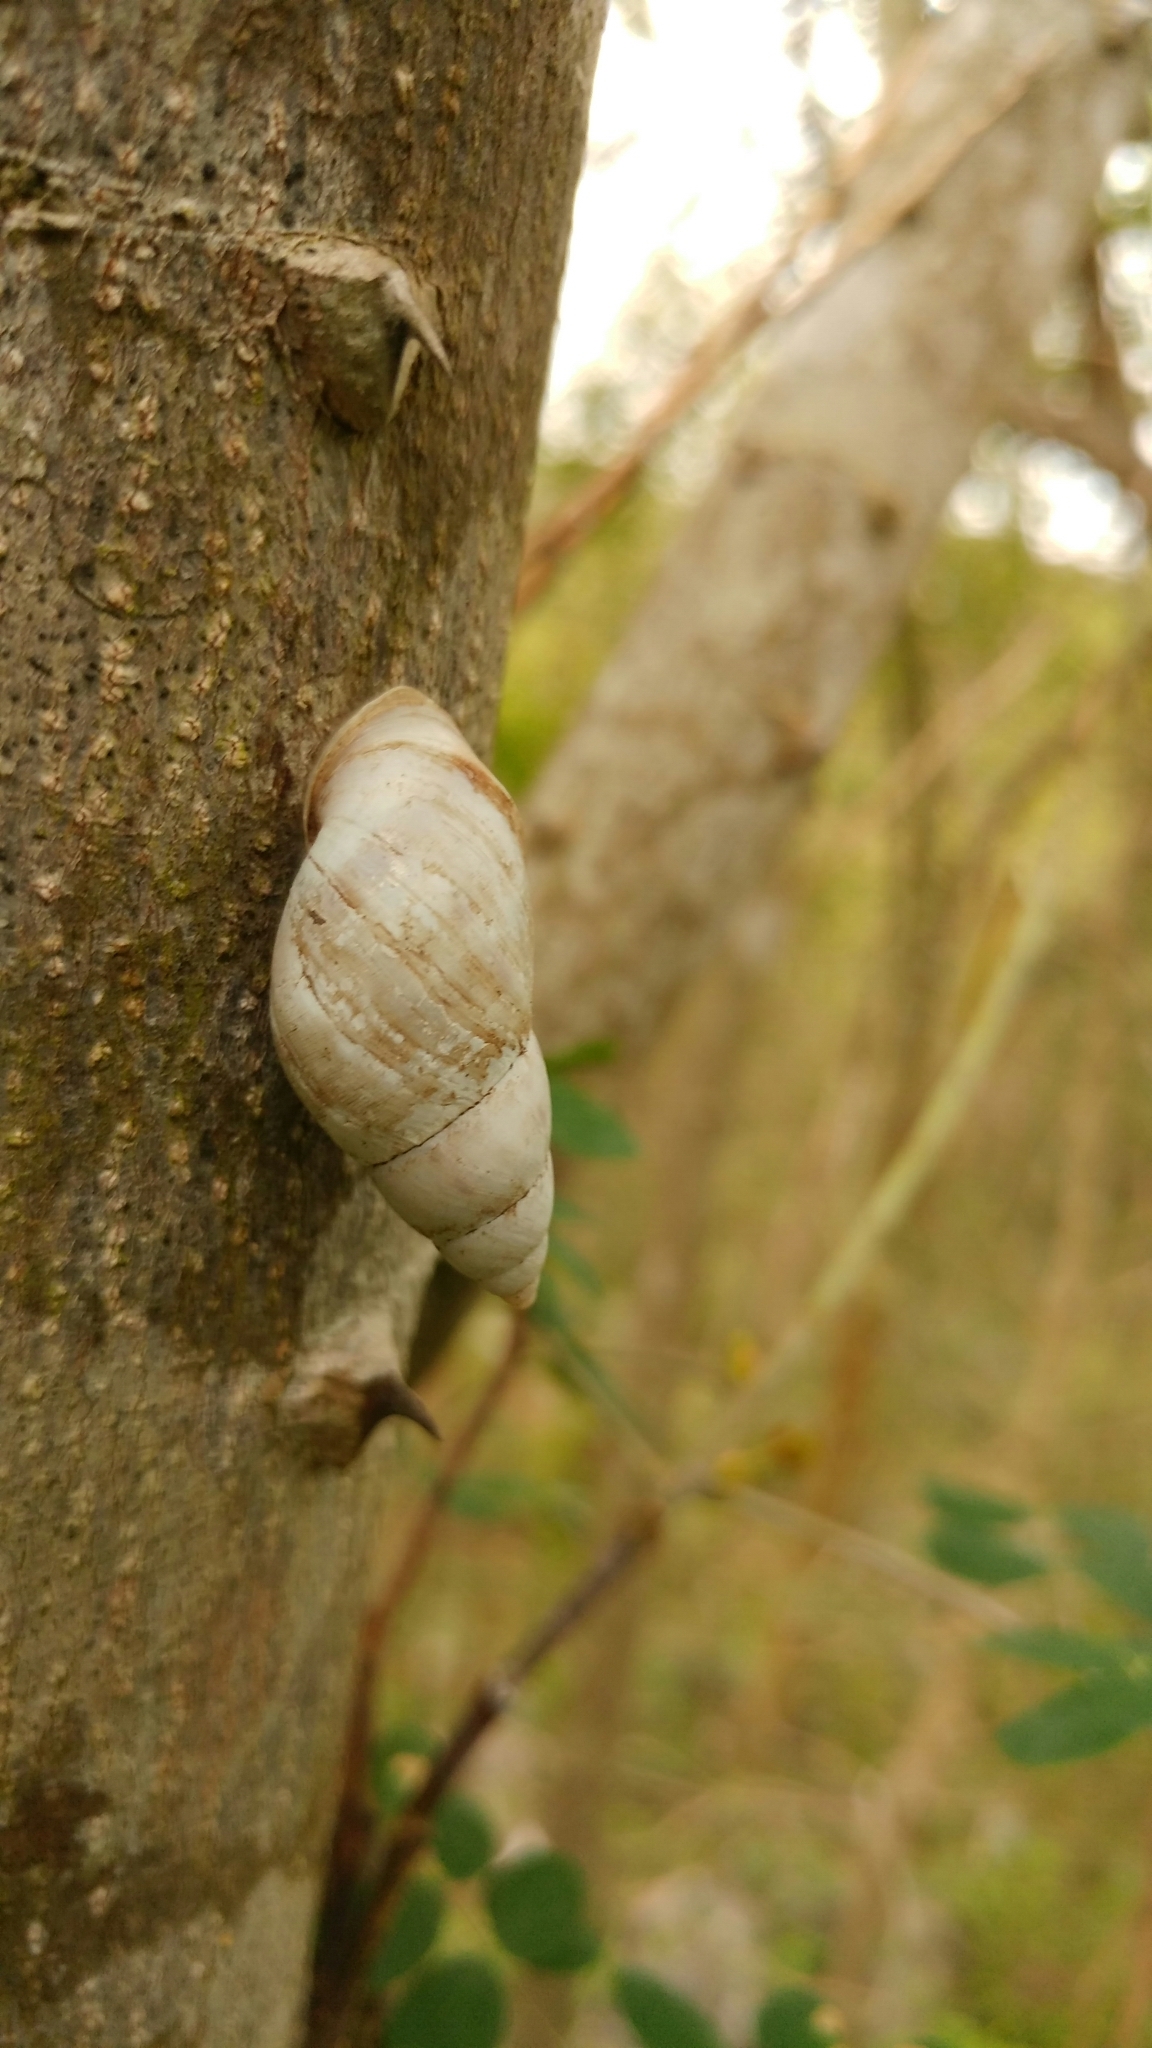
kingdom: Animalia
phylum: Mollusca
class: Gastropoda
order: Stylommatophora
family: Bulimulidae
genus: Rabdotus
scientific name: Rabdotus
